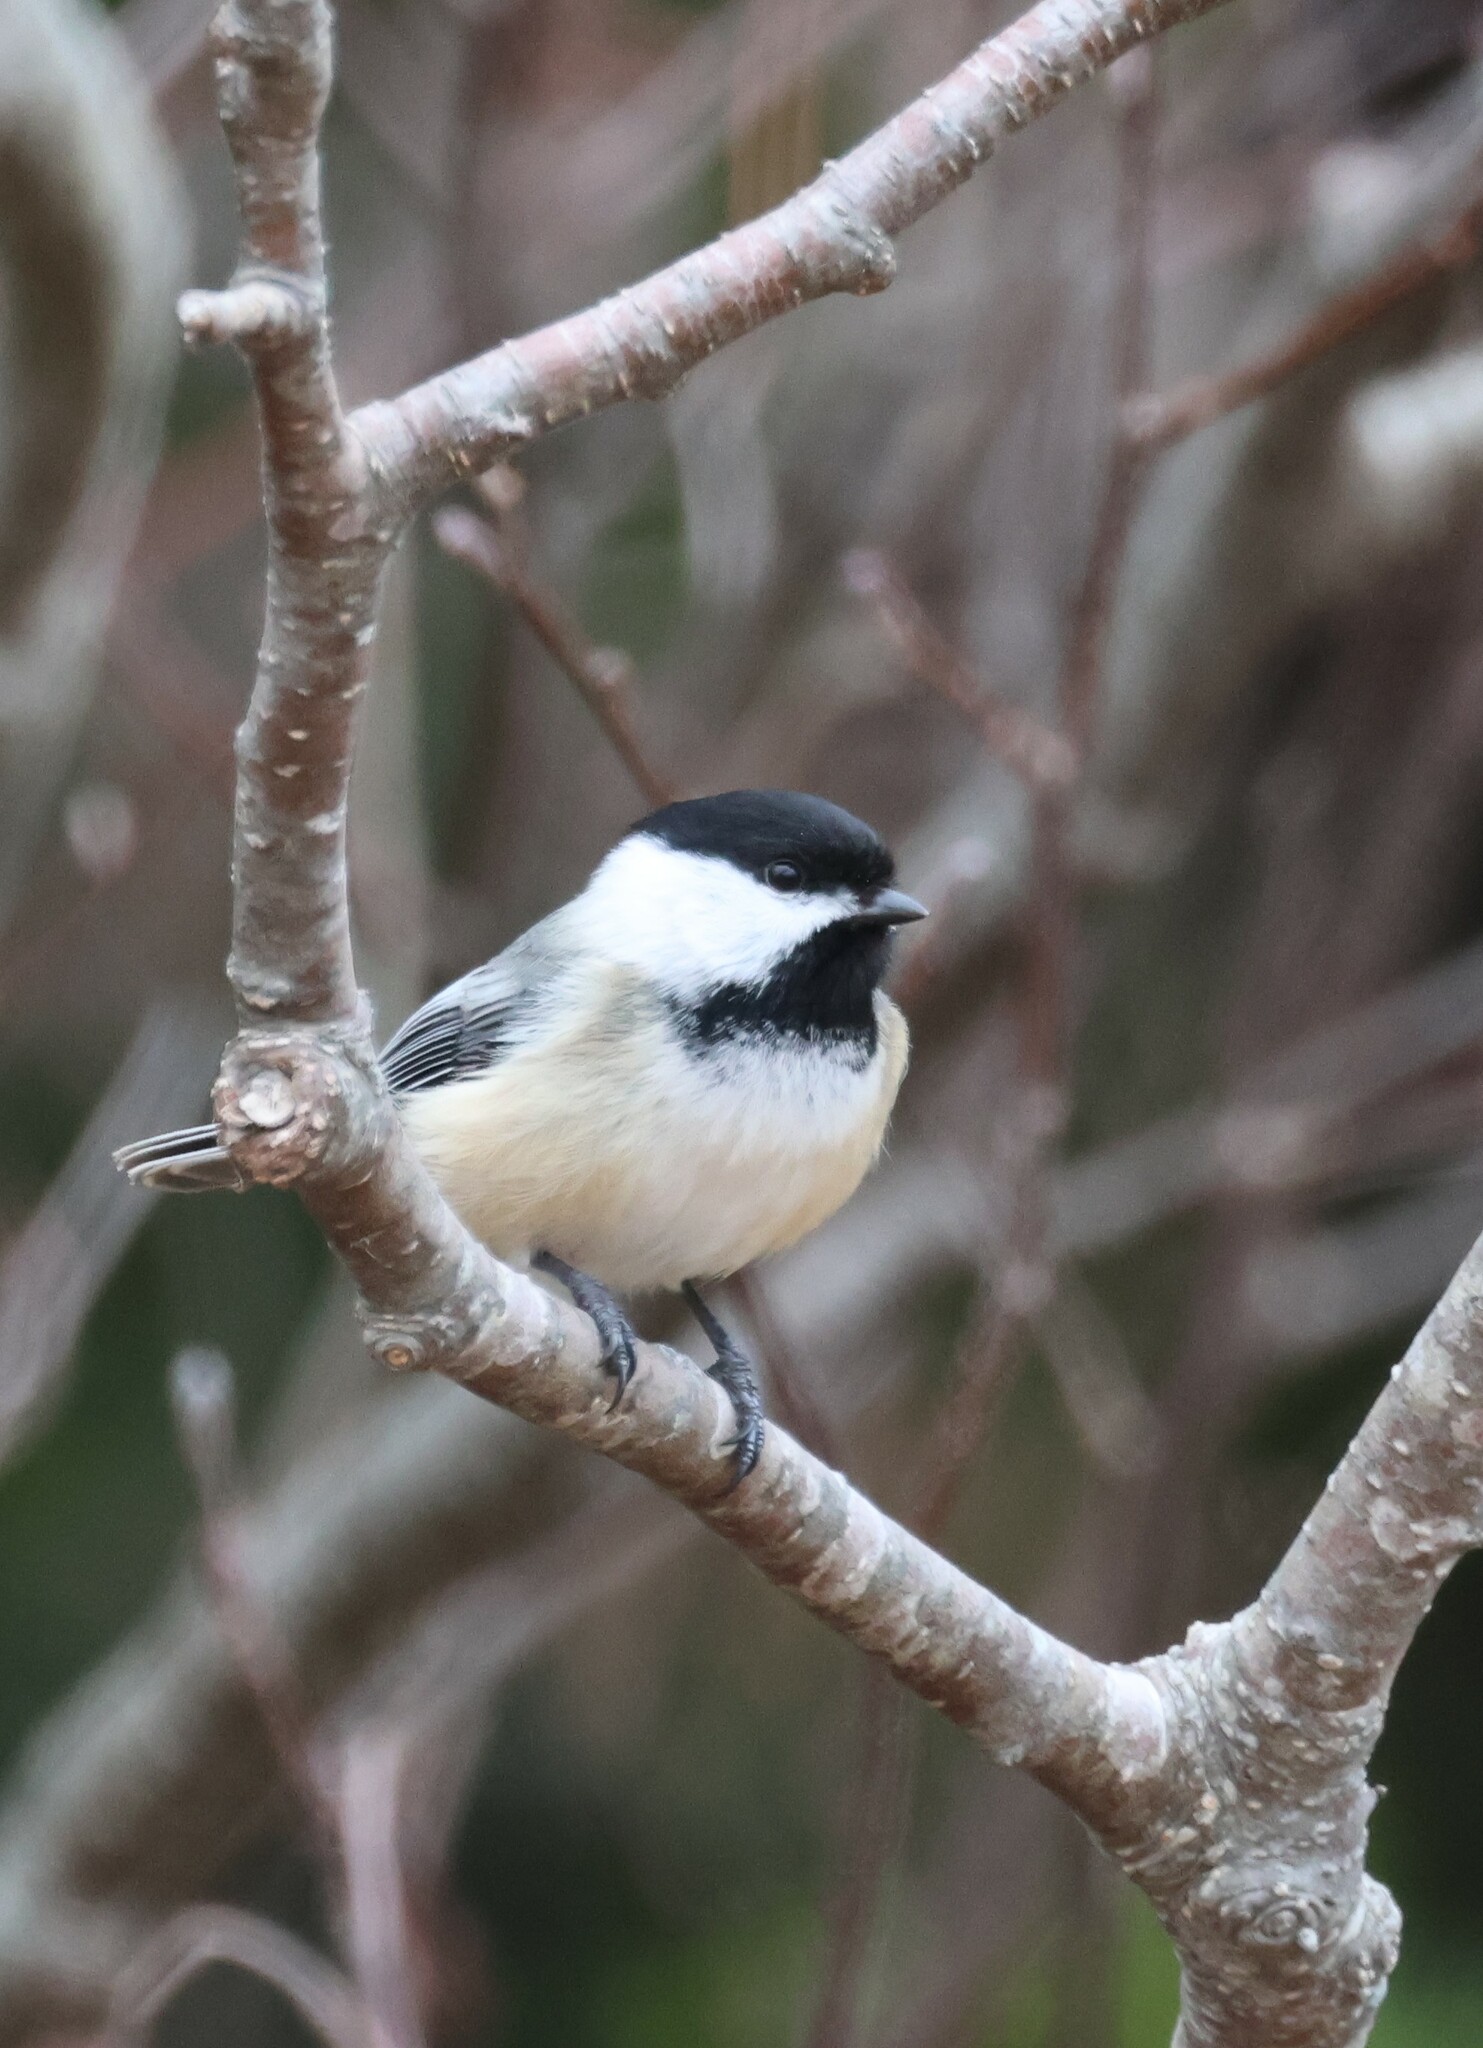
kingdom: Animalia
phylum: Chordata
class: Aves
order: Passeriformes
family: Paridae
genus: Poecile
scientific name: Poecile atricapillus
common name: Black-capped chickadee
